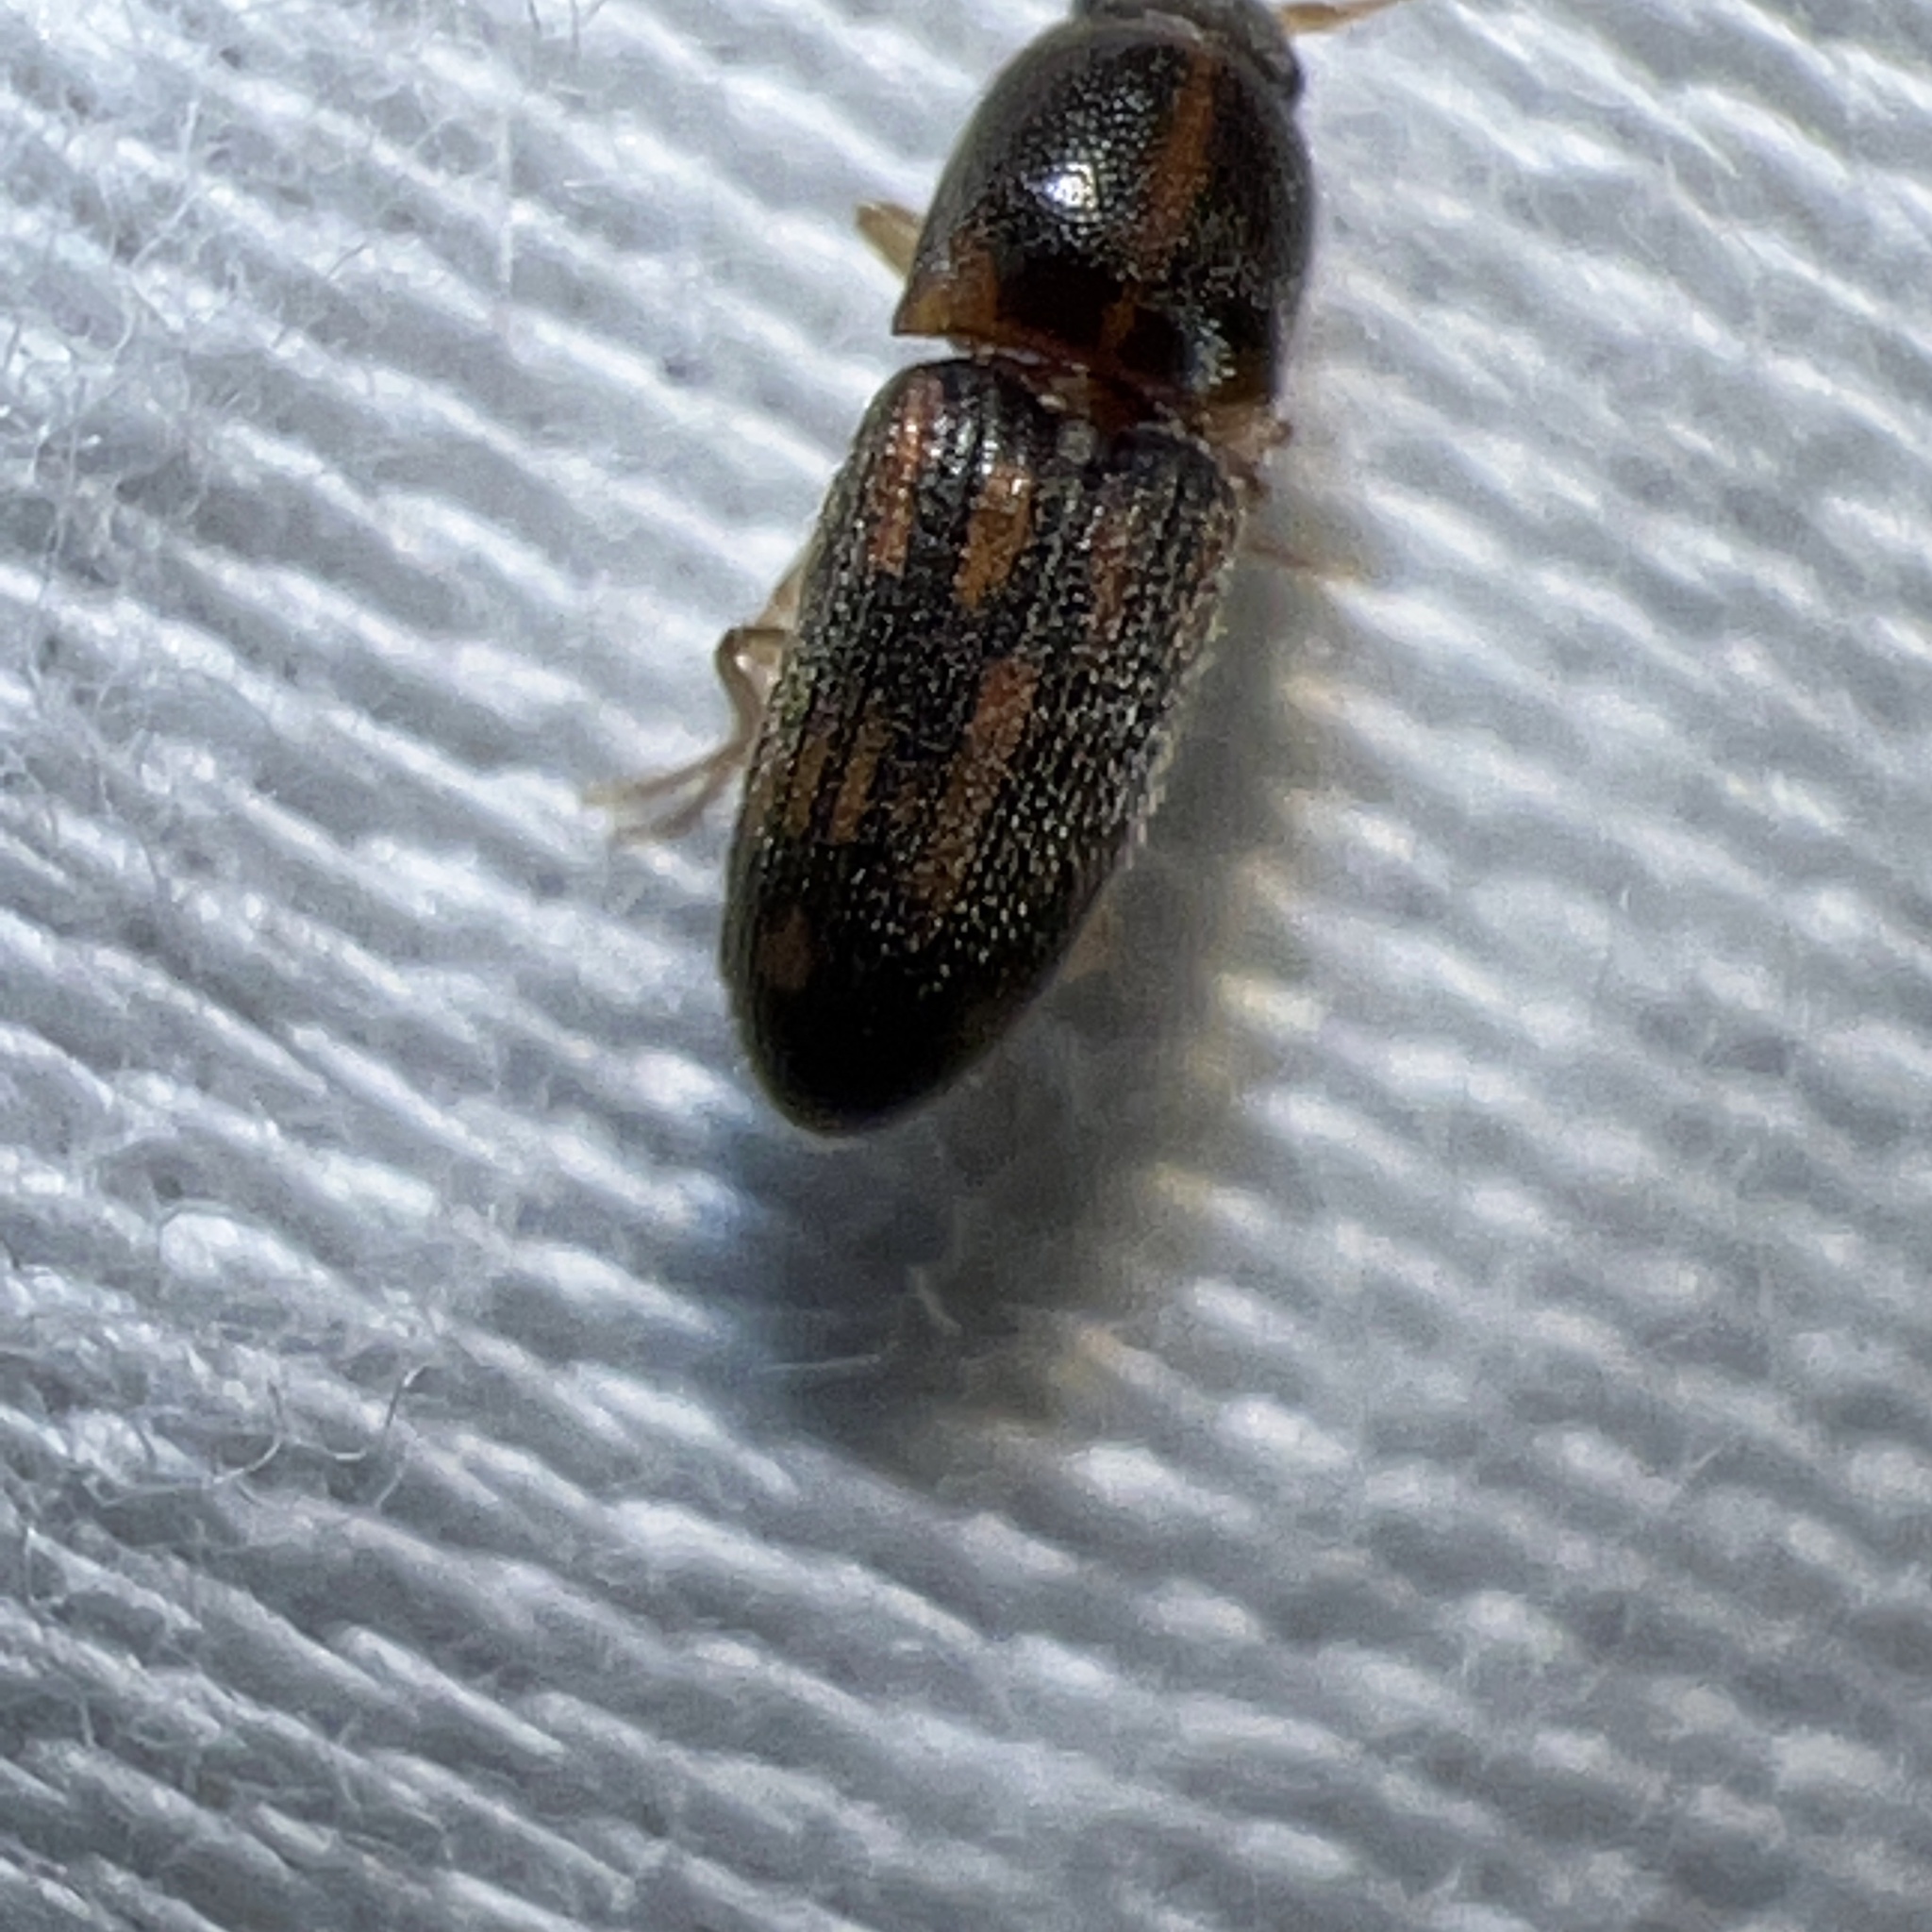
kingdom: Animalia
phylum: Arthropoda
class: Insecta
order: Coleoptera
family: Elateridae
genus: Monocrepidius
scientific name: Monocrepidius bellus
